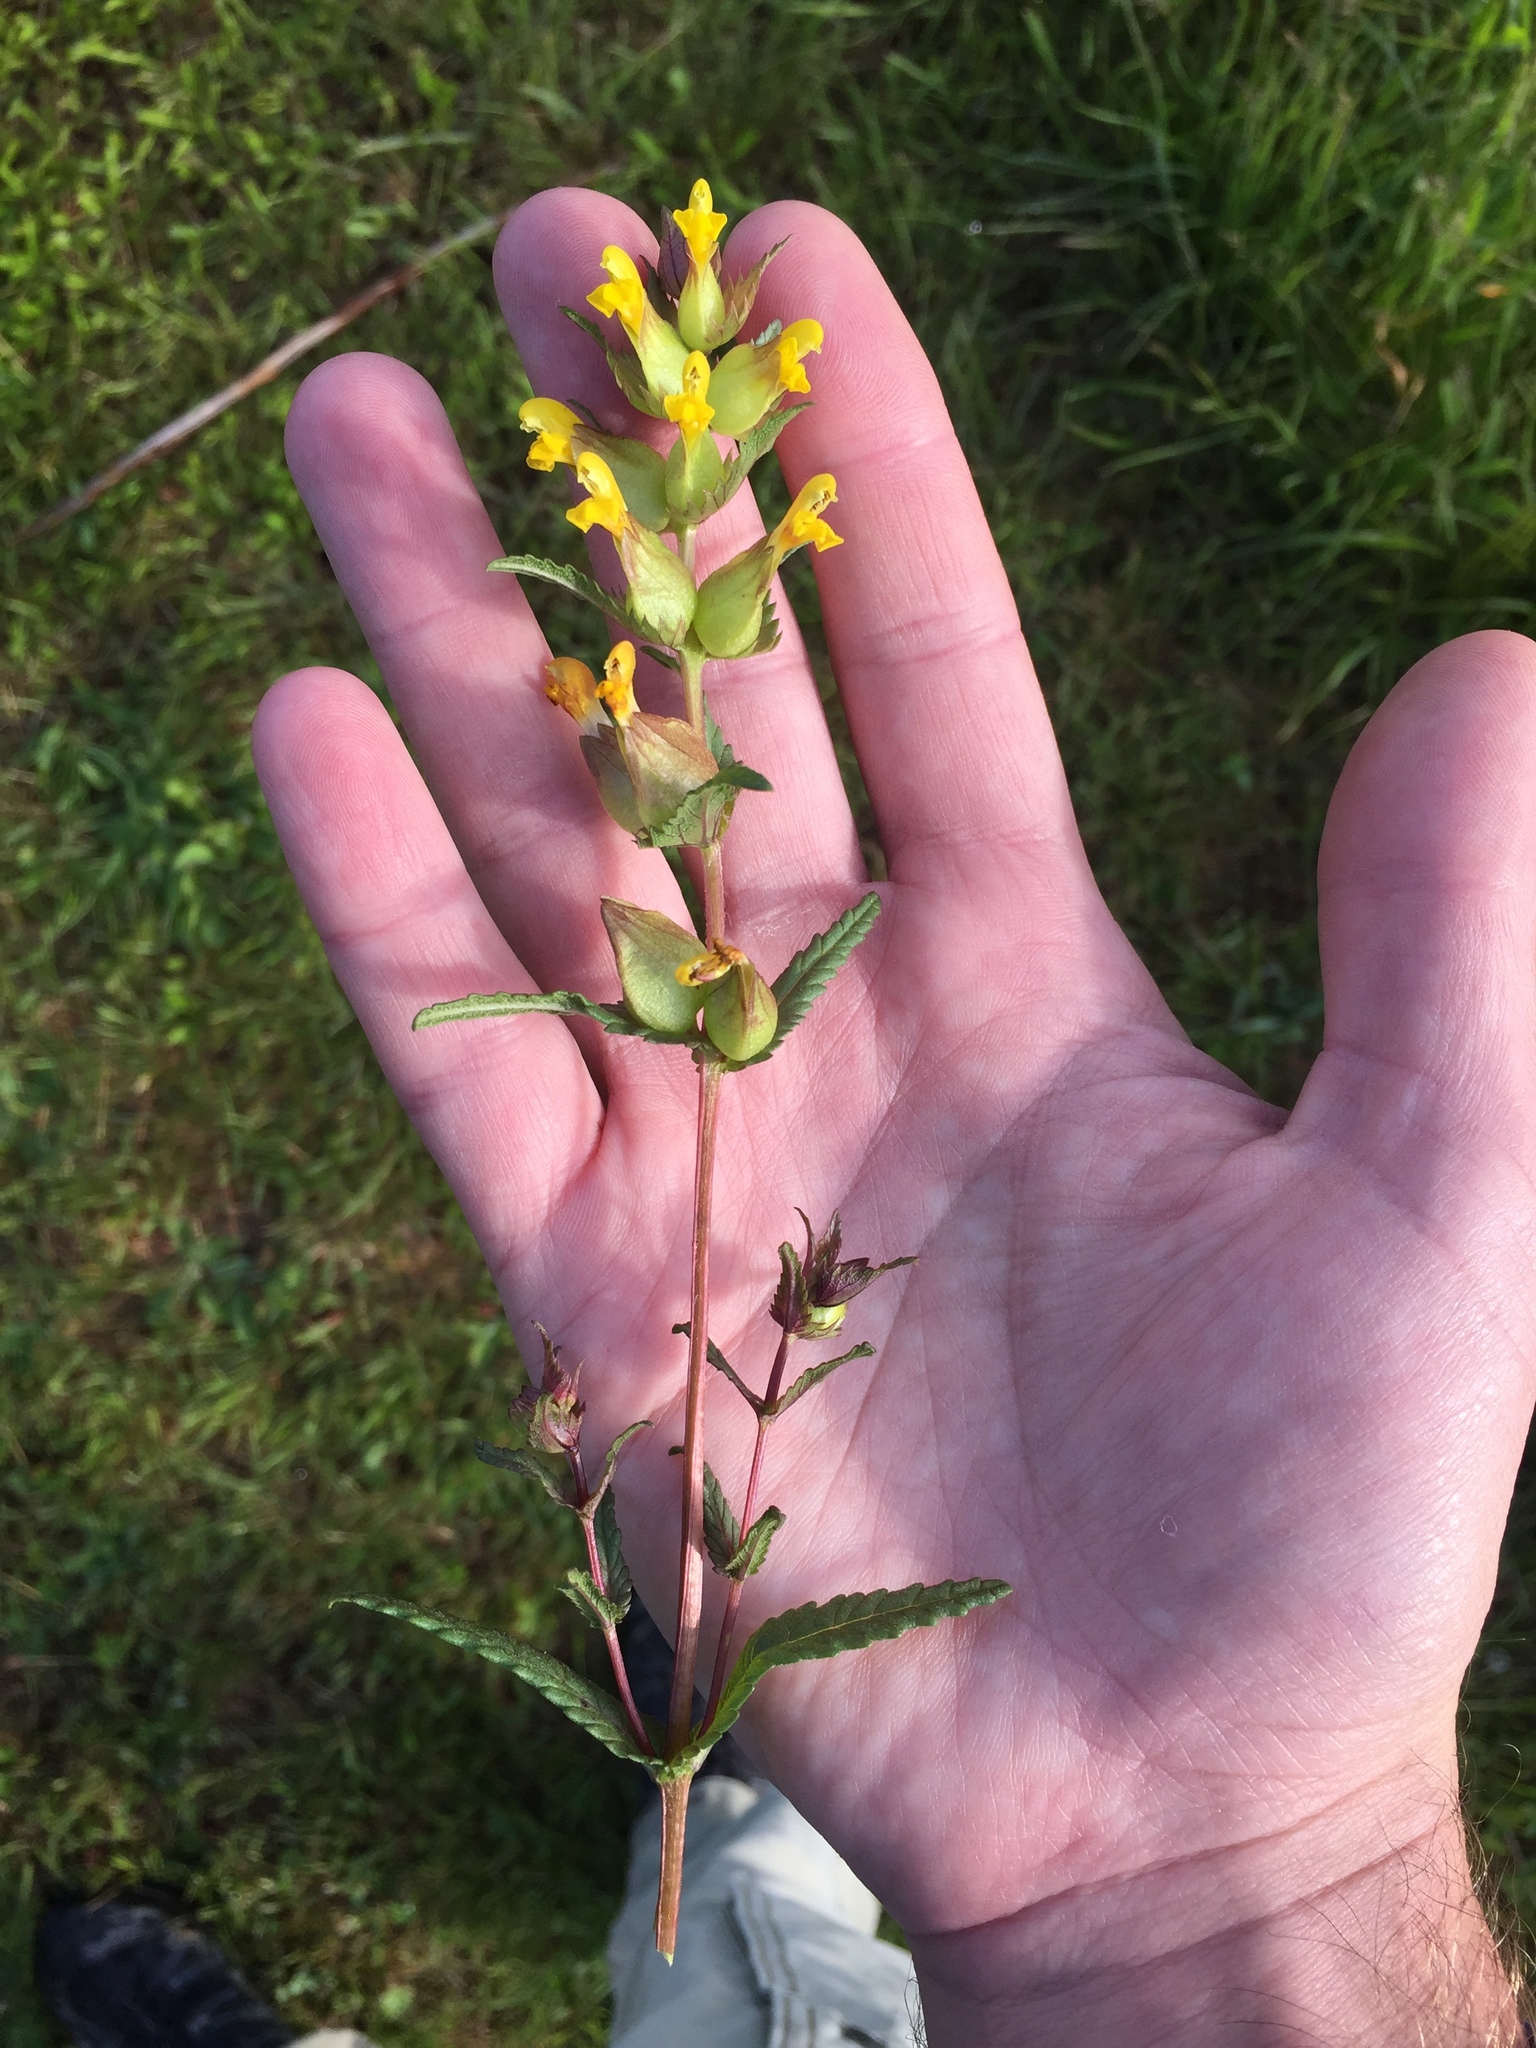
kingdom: Plantae
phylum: Tracheophyta
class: Magnoliopsida
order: Lamiales
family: Orobanchaceae
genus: Rhinanthus
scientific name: Rhinanthus minor
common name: Yellow-rattle
